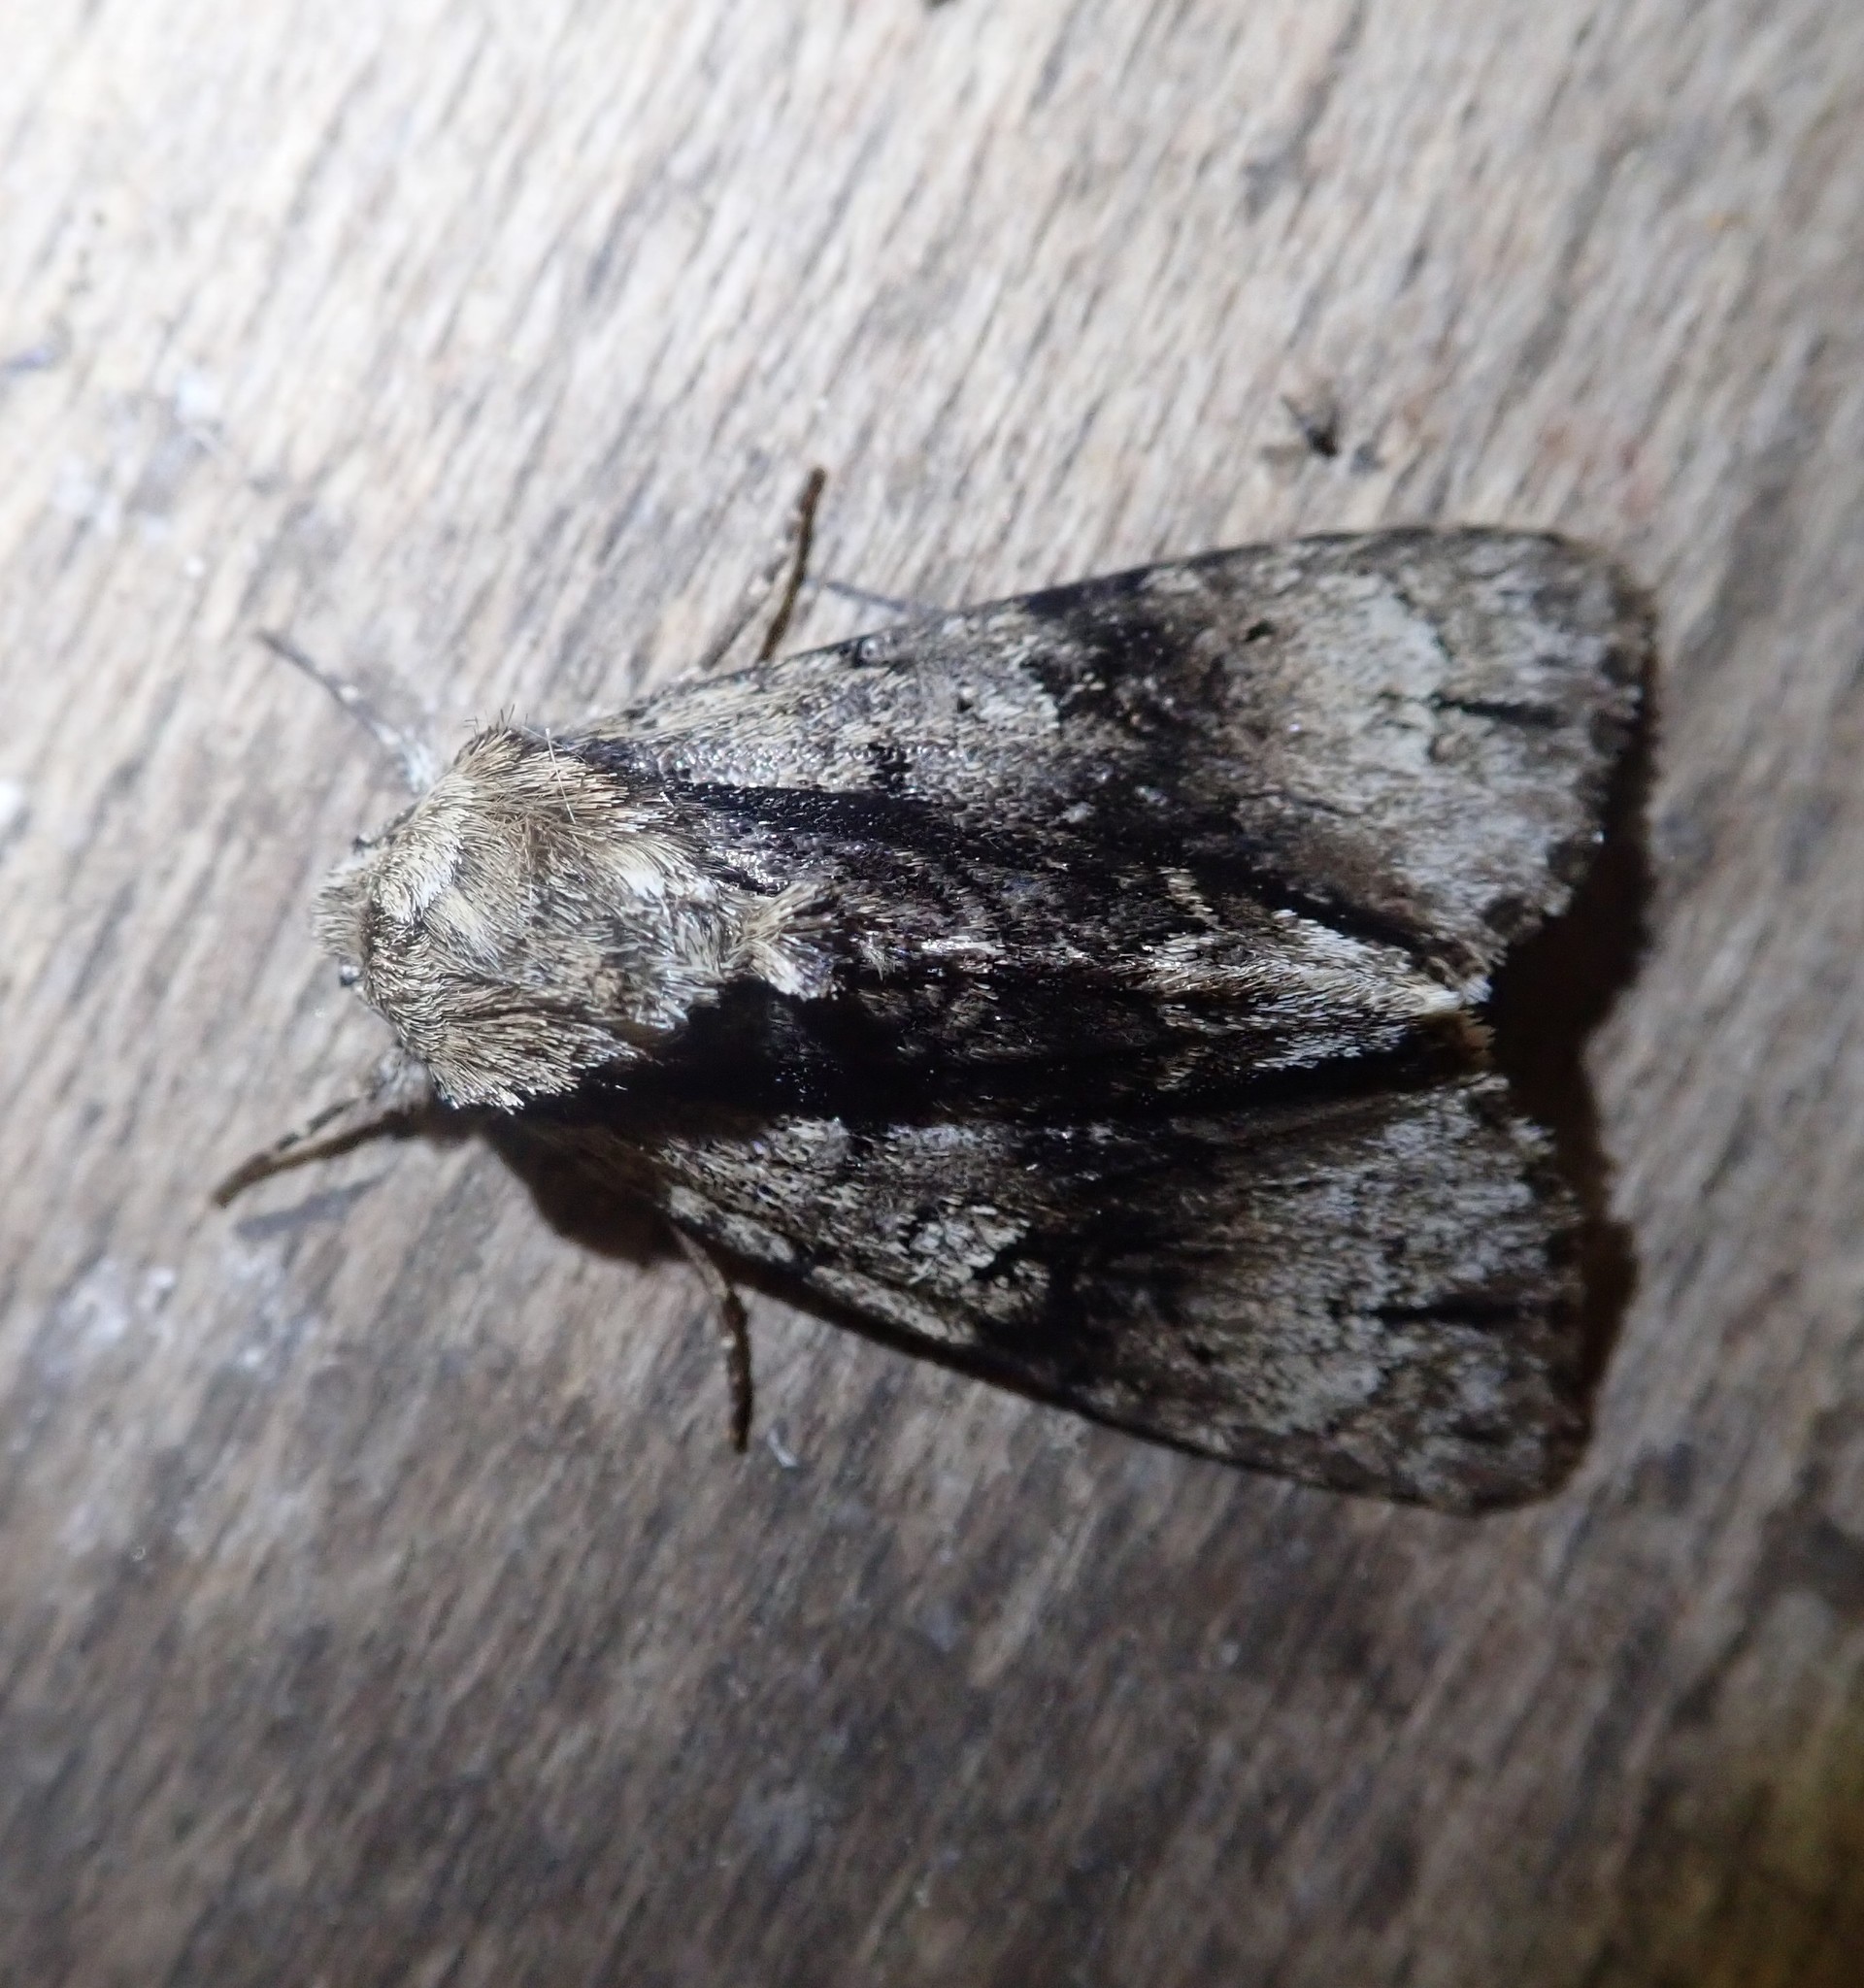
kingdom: Animalia
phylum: Arthropoda
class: Insecta
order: Lepidoptera
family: Noctuidae
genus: Acronicta
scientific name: Acronicta alni
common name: Alder moth
